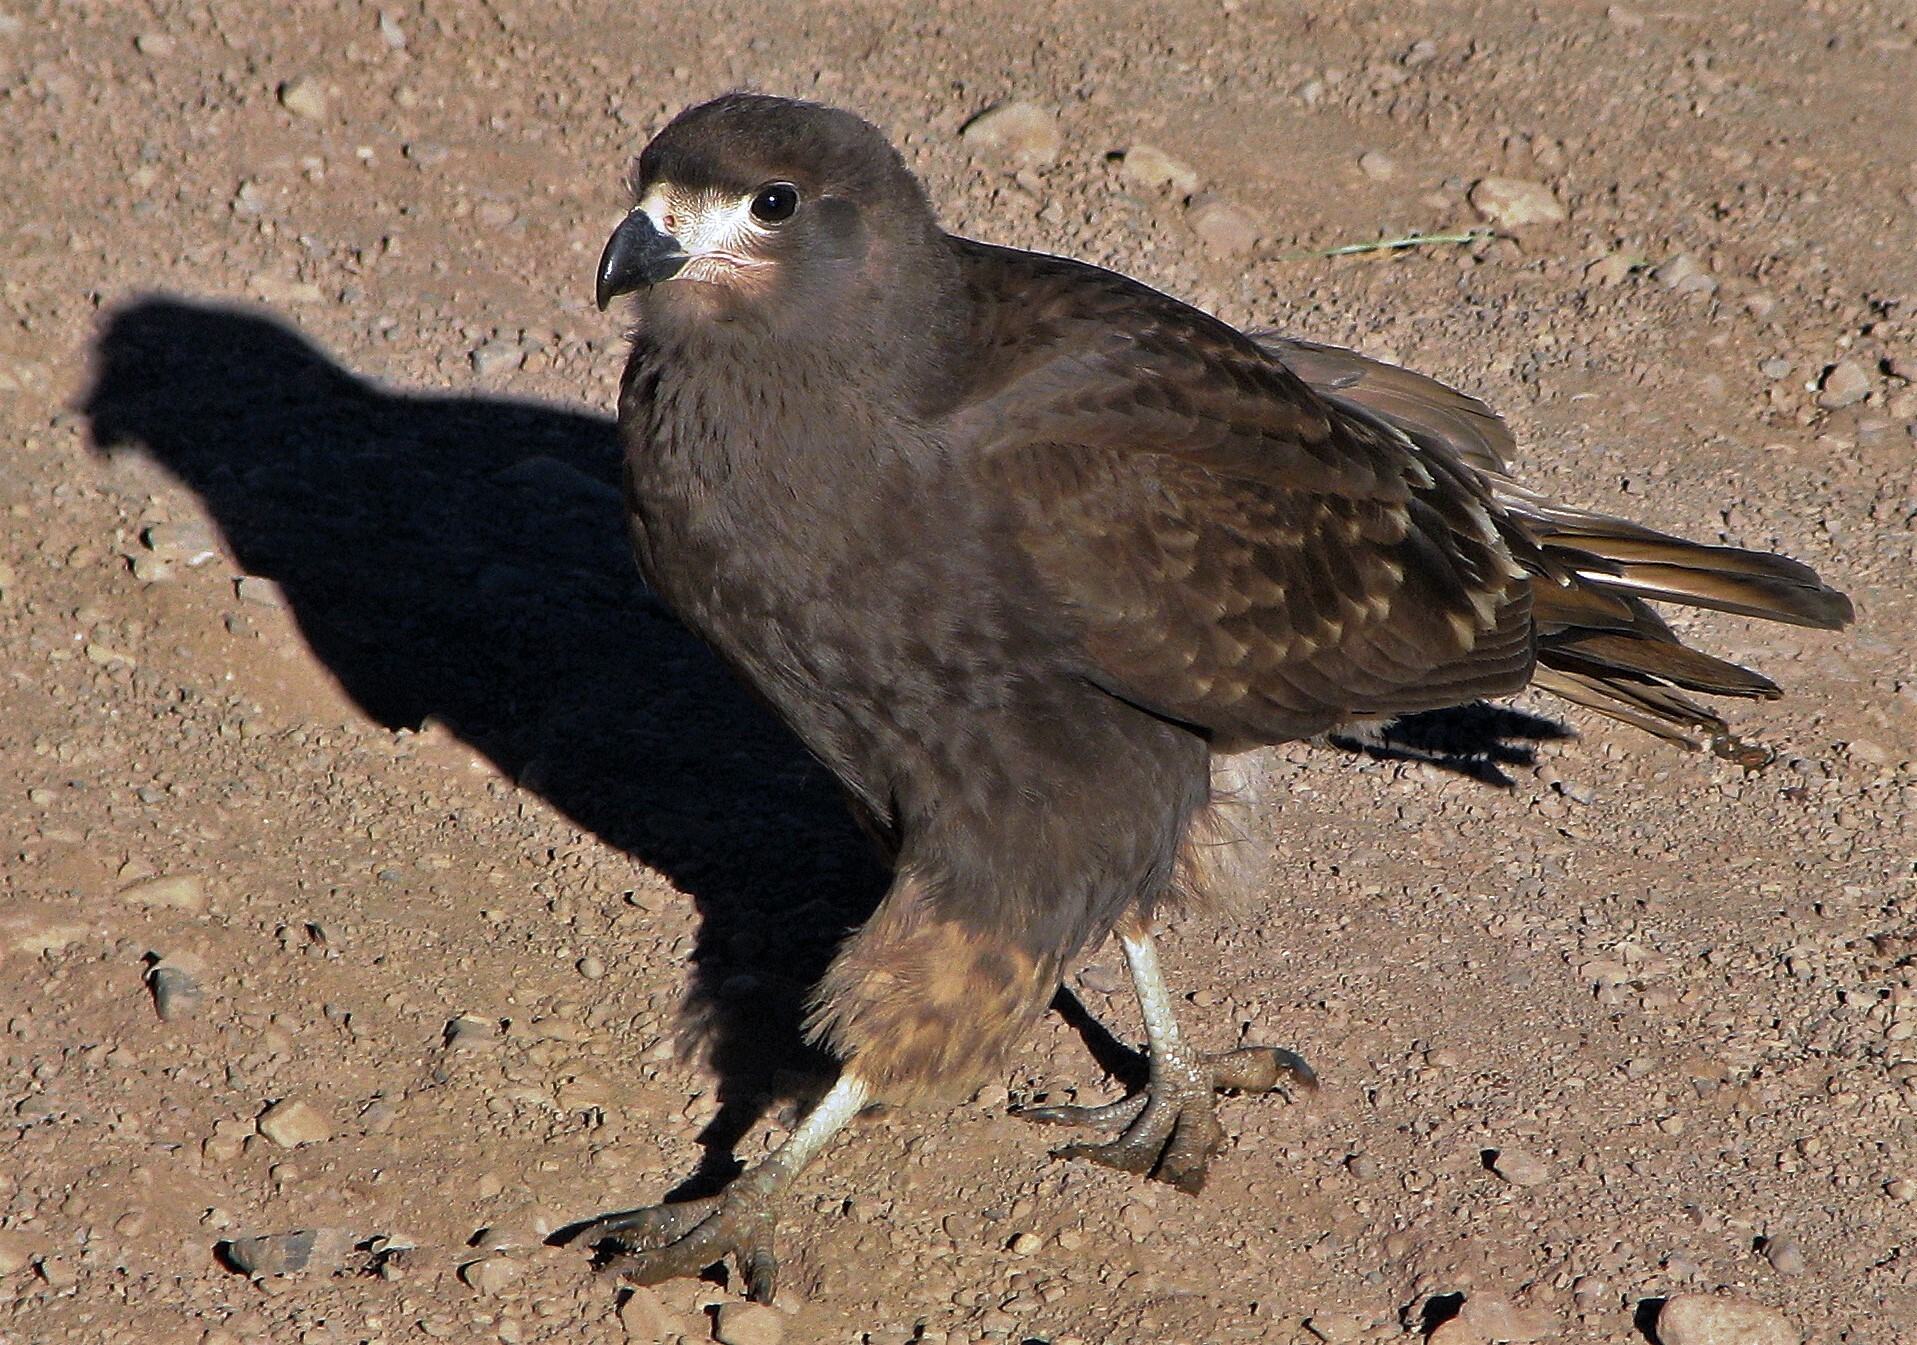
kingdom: Animalia
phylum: Chordata
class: Aves
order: Falconiformes
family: Falconidae
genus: Daptrius
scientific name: Daptrius
